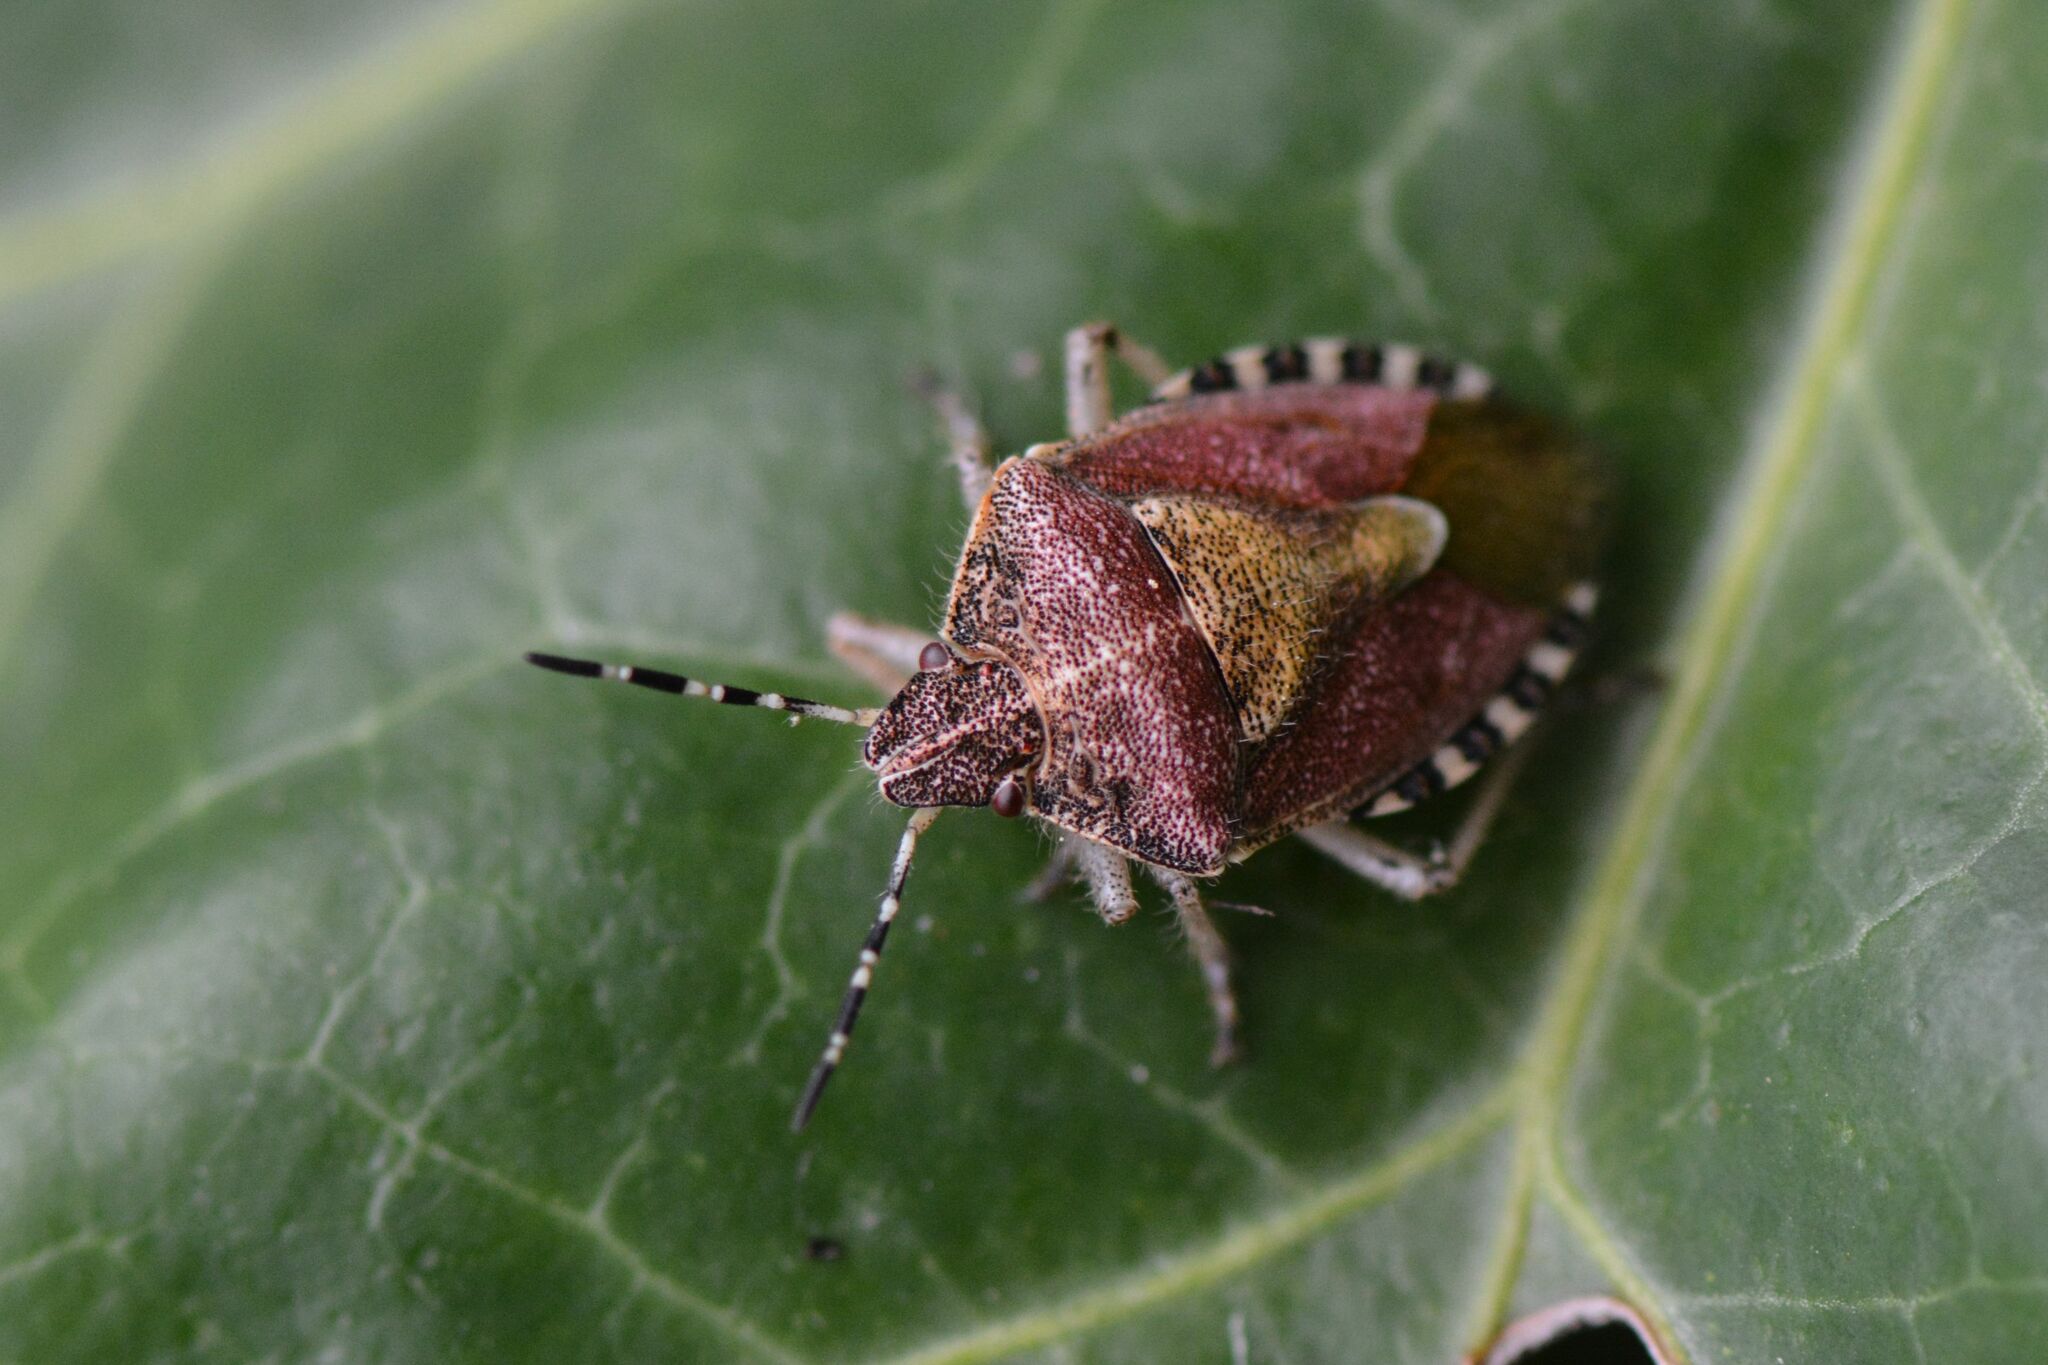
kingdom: Animalia
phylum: Arthropoda
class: Insecta
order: Hemiptera
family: Pentatomidae
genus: Dolycoris
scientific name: Dolycoris baccarum
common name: Sloe bug
